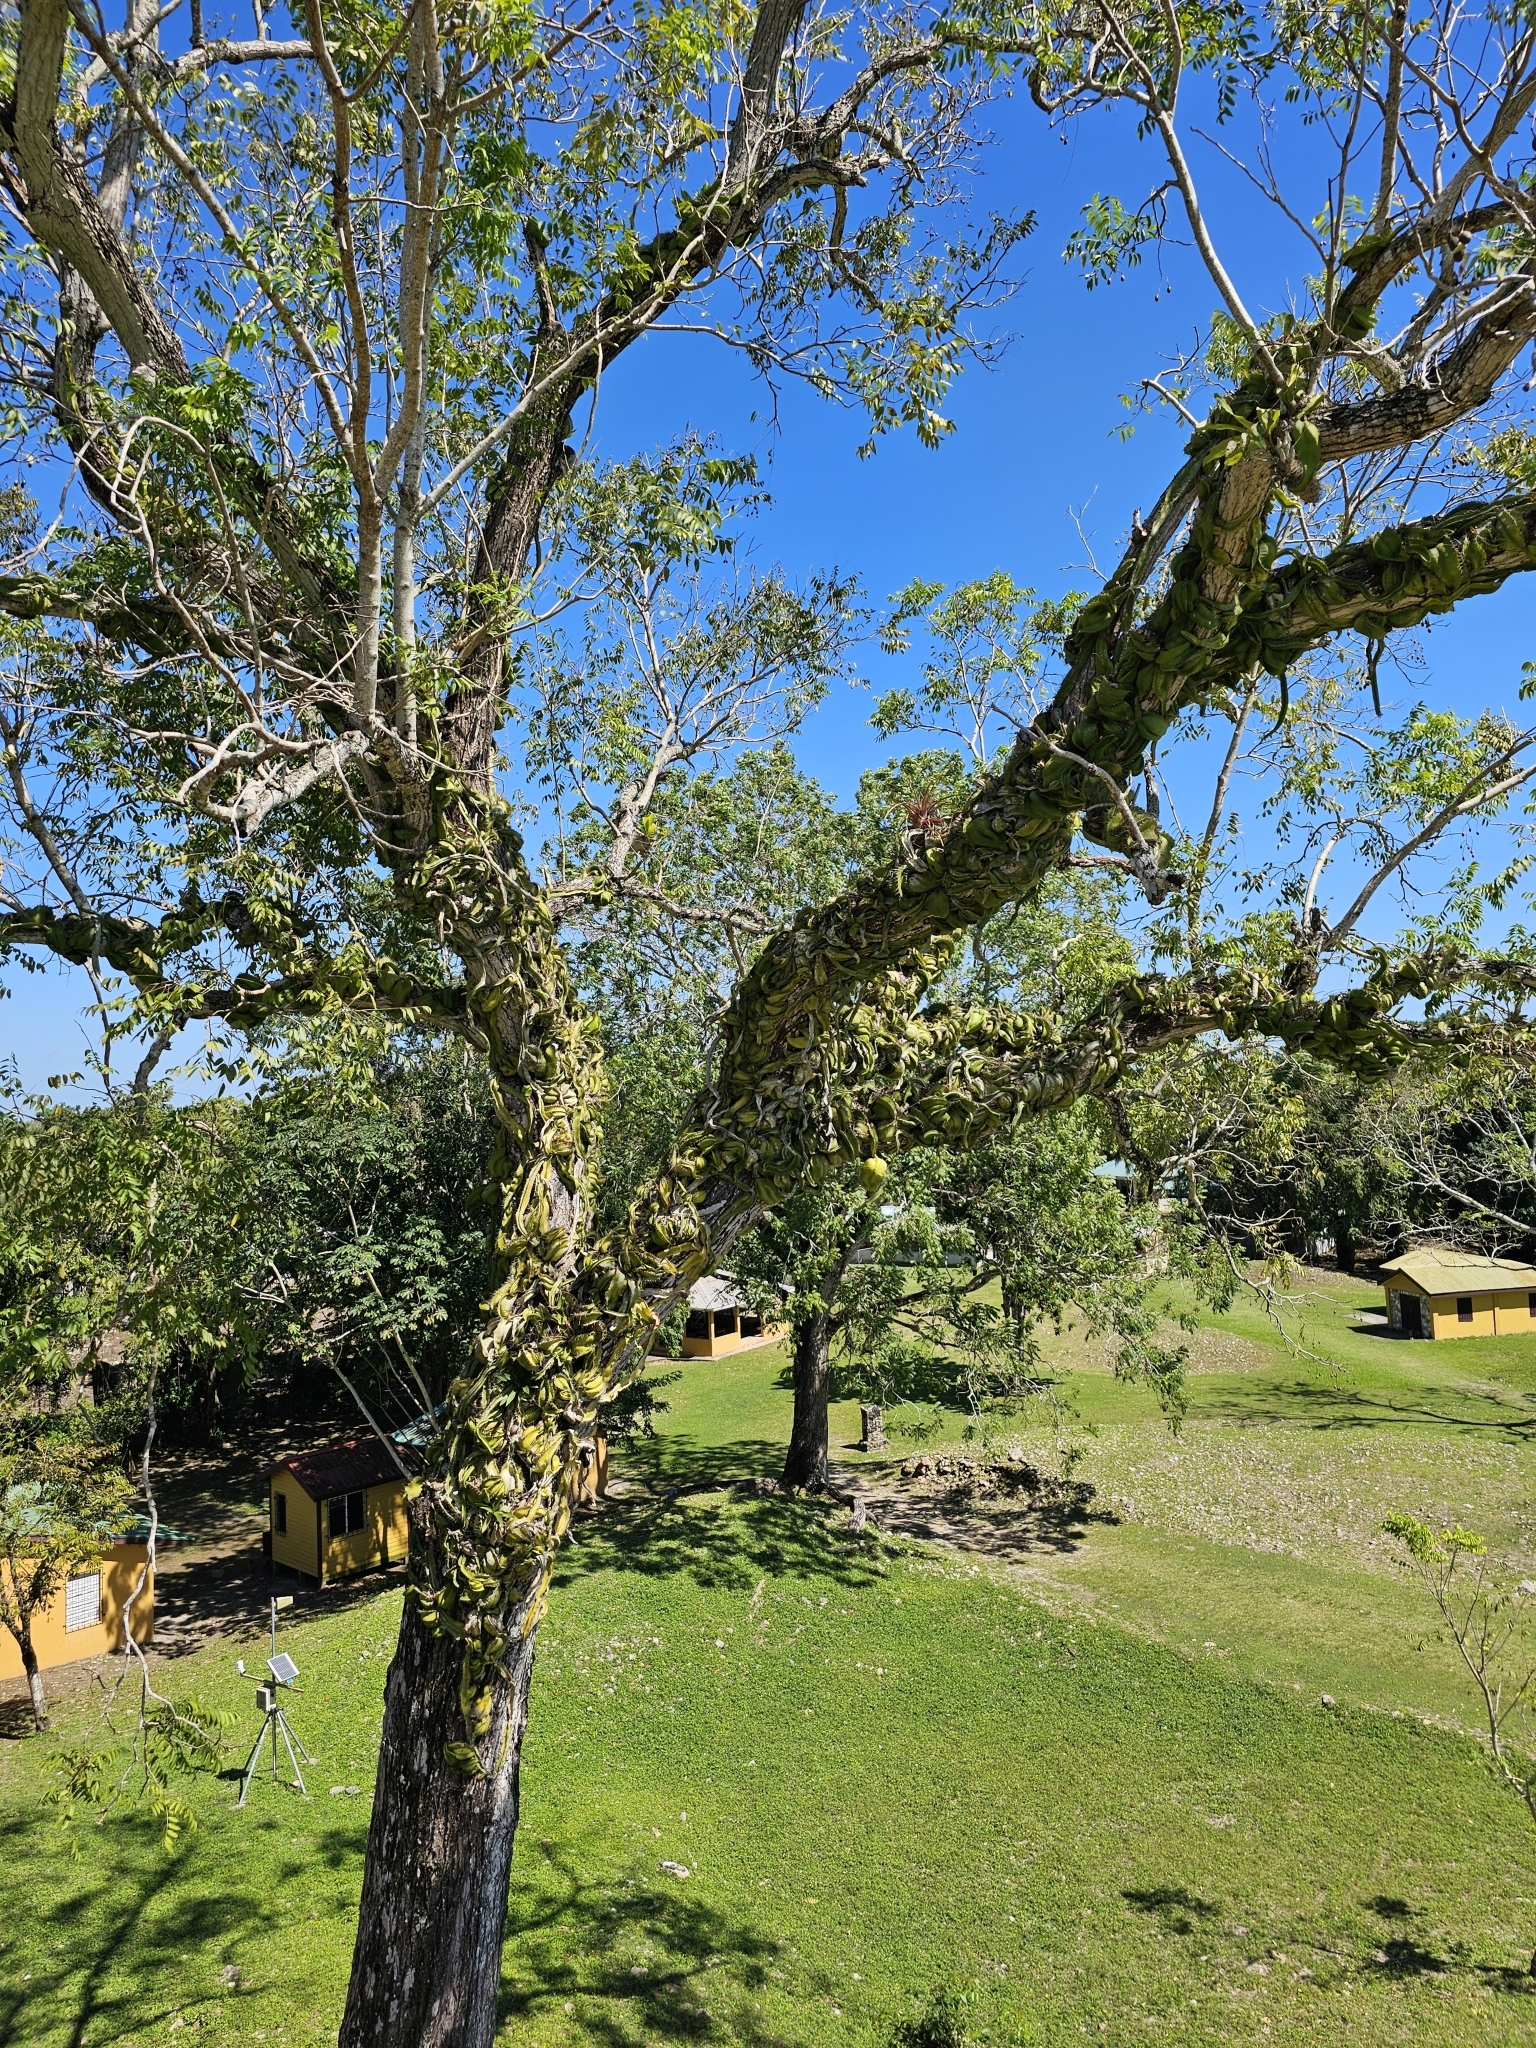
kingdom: Plantae
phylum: Tracheophyta
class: Magnoliopsida
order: Caryophyllales
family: Cactaceae
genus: Deamia
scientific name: Deamia testudo
